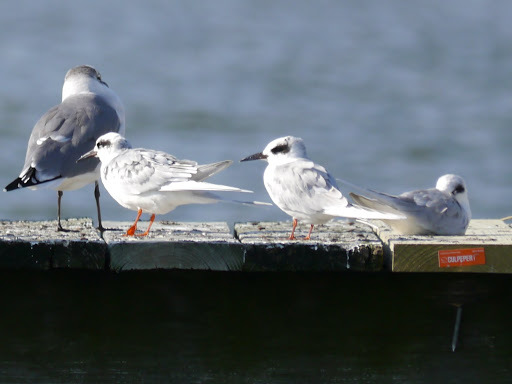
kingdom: Animalia
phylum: Chordata
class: Aves
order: Charadriiformes
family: Laridae
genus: Sterna
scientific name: Sterna forsteri
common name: Forster's tern
